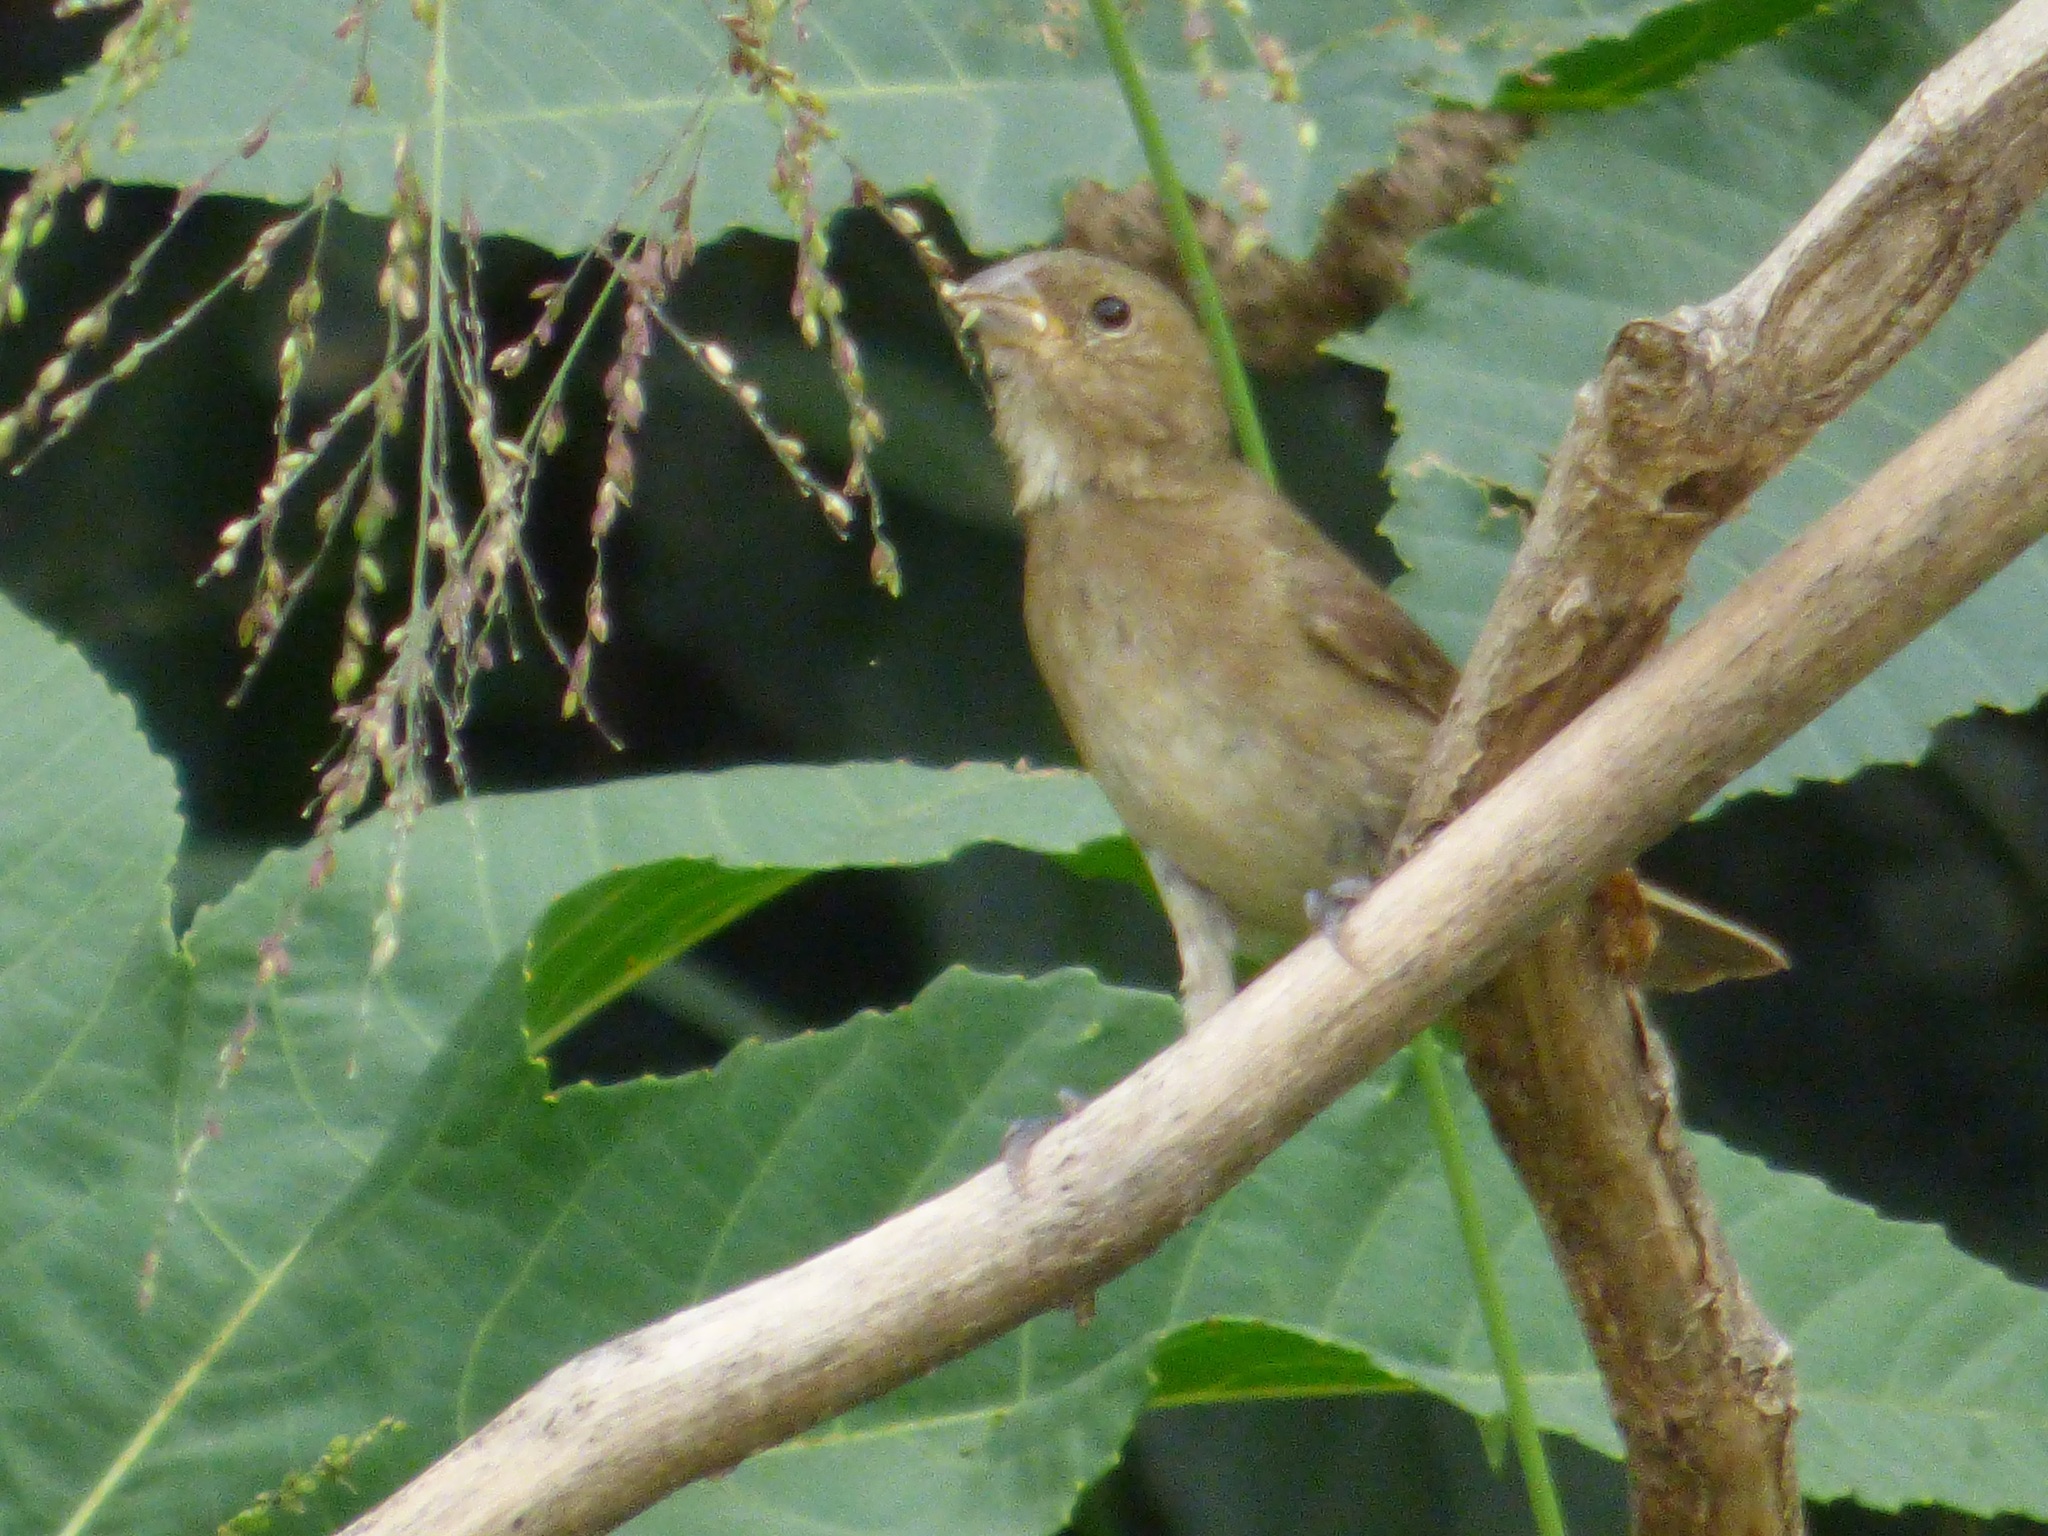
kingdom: Animalia
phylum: Chordata
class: Aves
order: Passeriformes
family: Thraupidae
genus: Sporophila
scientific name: Sporophila caerulescens
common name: Double-collared seedeater
